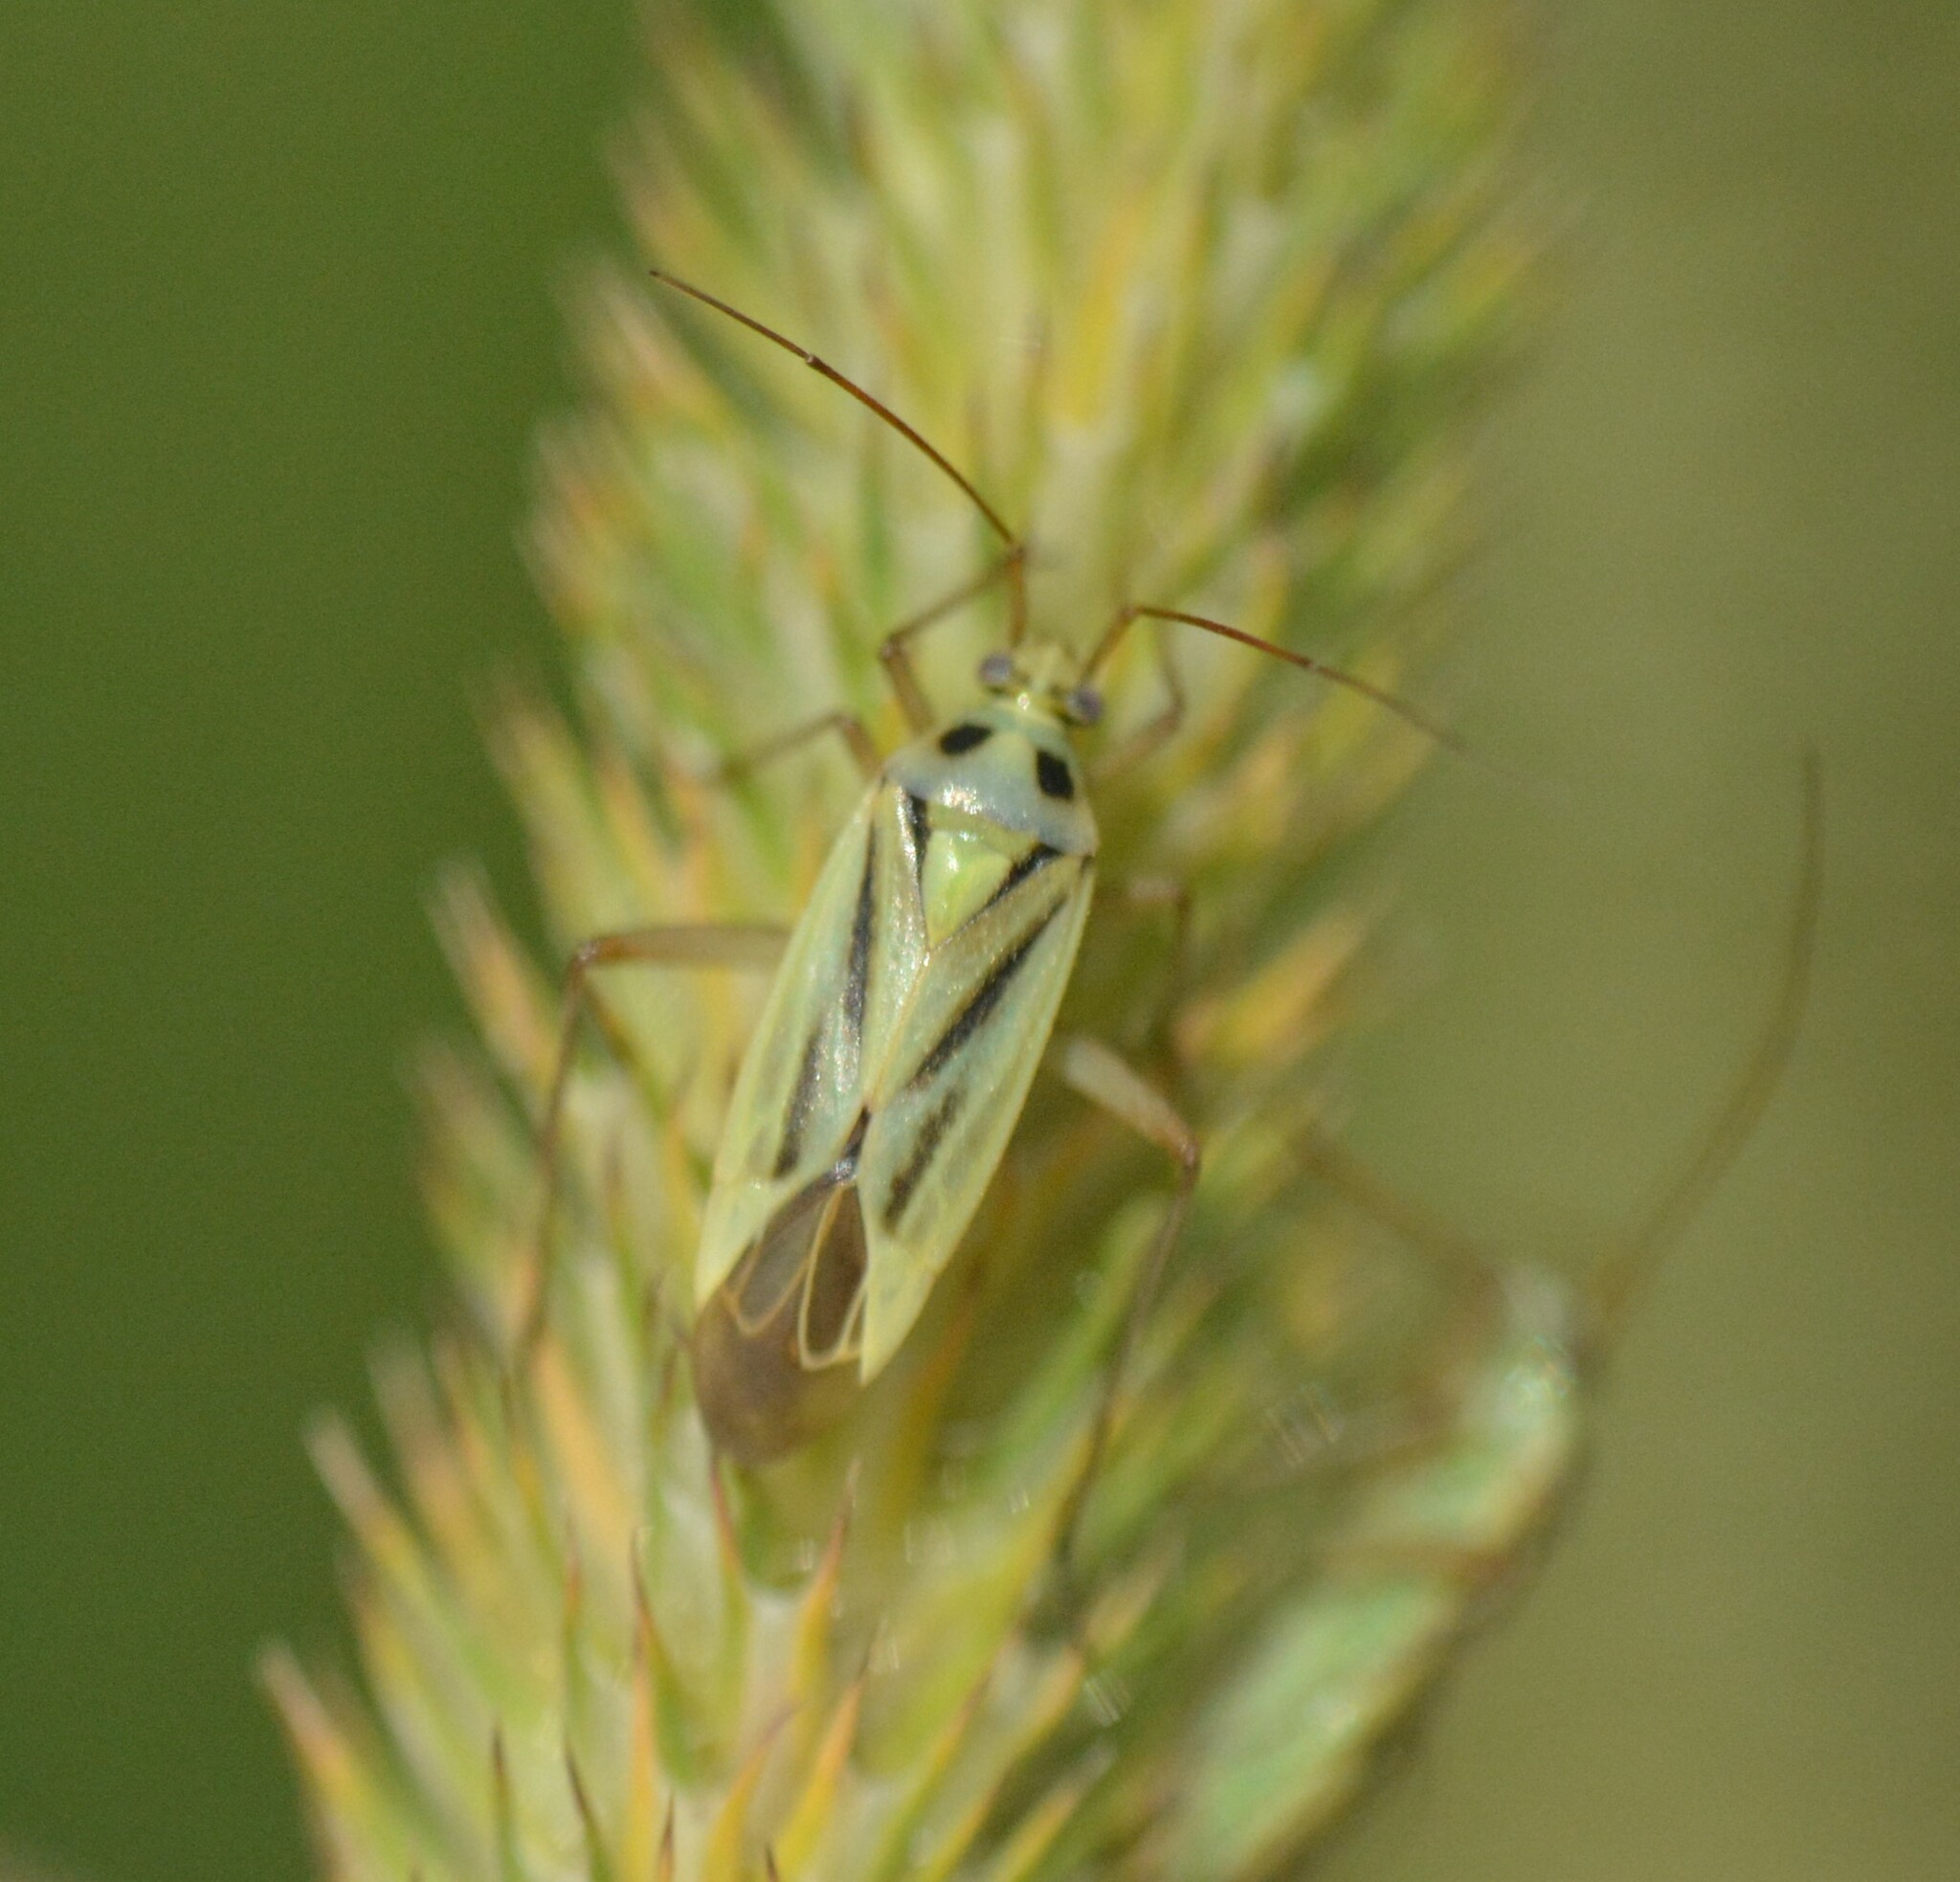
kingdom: Animalia
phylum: Arthropoda
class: Insecta
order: Hemiptera
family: Miridae
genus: Stenotus
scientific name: Stenotus binotatus
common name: Plant bug
